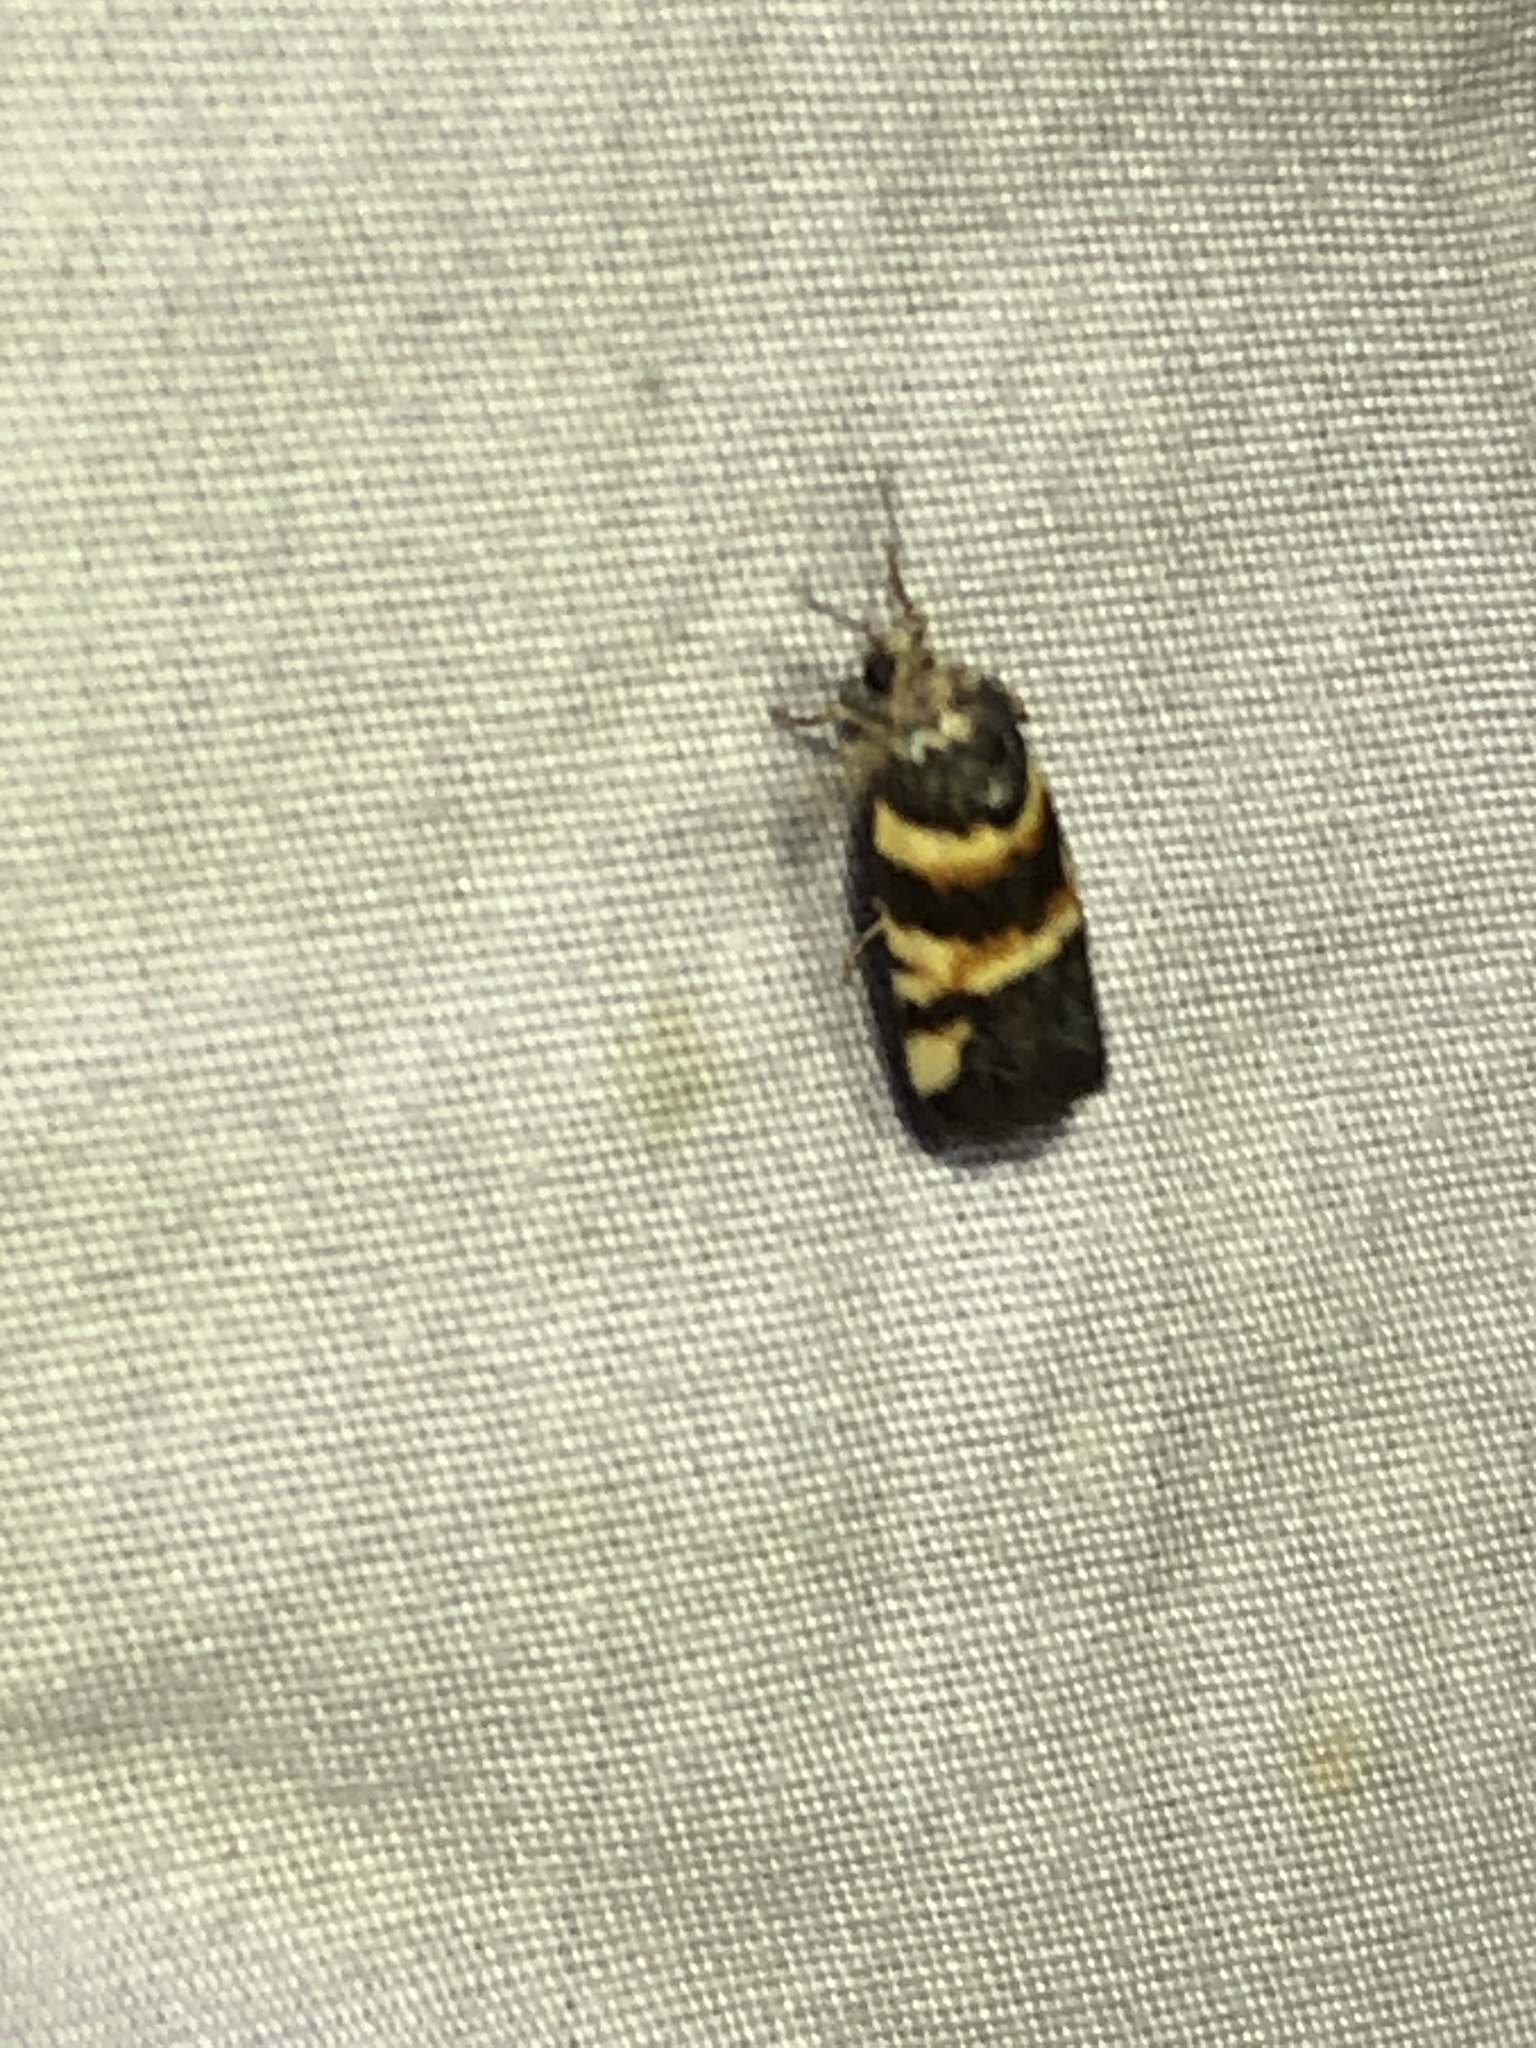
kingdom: Animalia
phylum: Arthropoda
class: Insecta
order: Lepidoptera
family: Noctuidae
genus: Spragueia
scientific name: Spragueia funeralis
